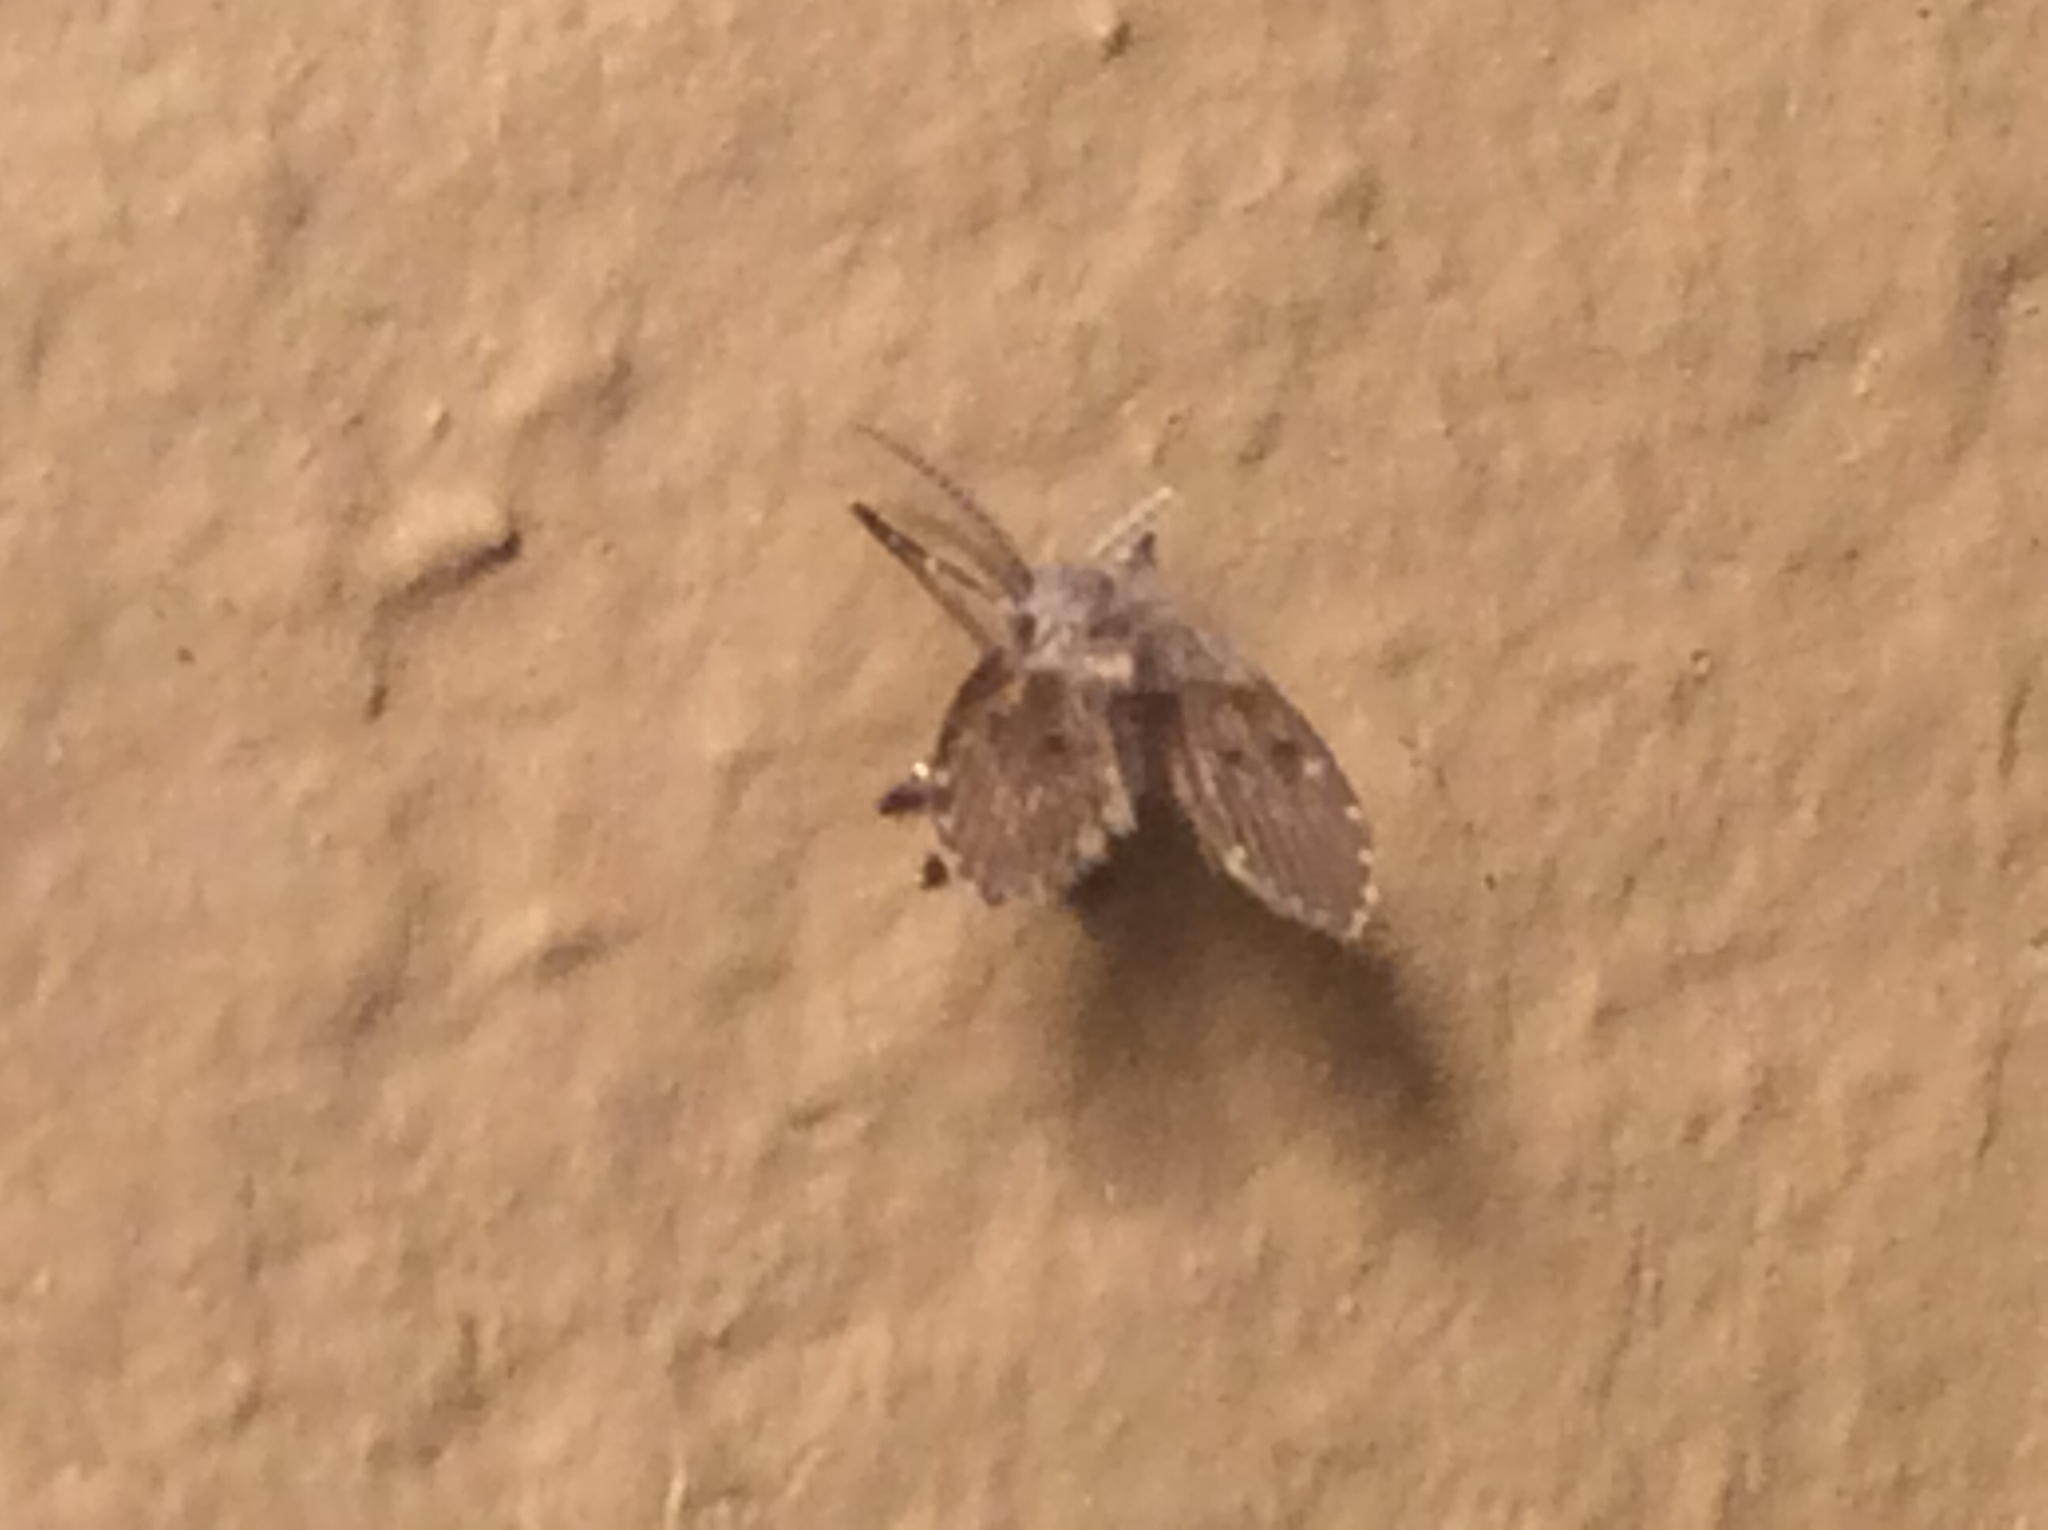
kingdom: Animalia
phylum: Arthropoda
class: Insecta
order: Diptera
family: Psychodidae
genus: Clogmia
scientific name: Clogmia albipunctatus
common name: White-spotted moth fly
